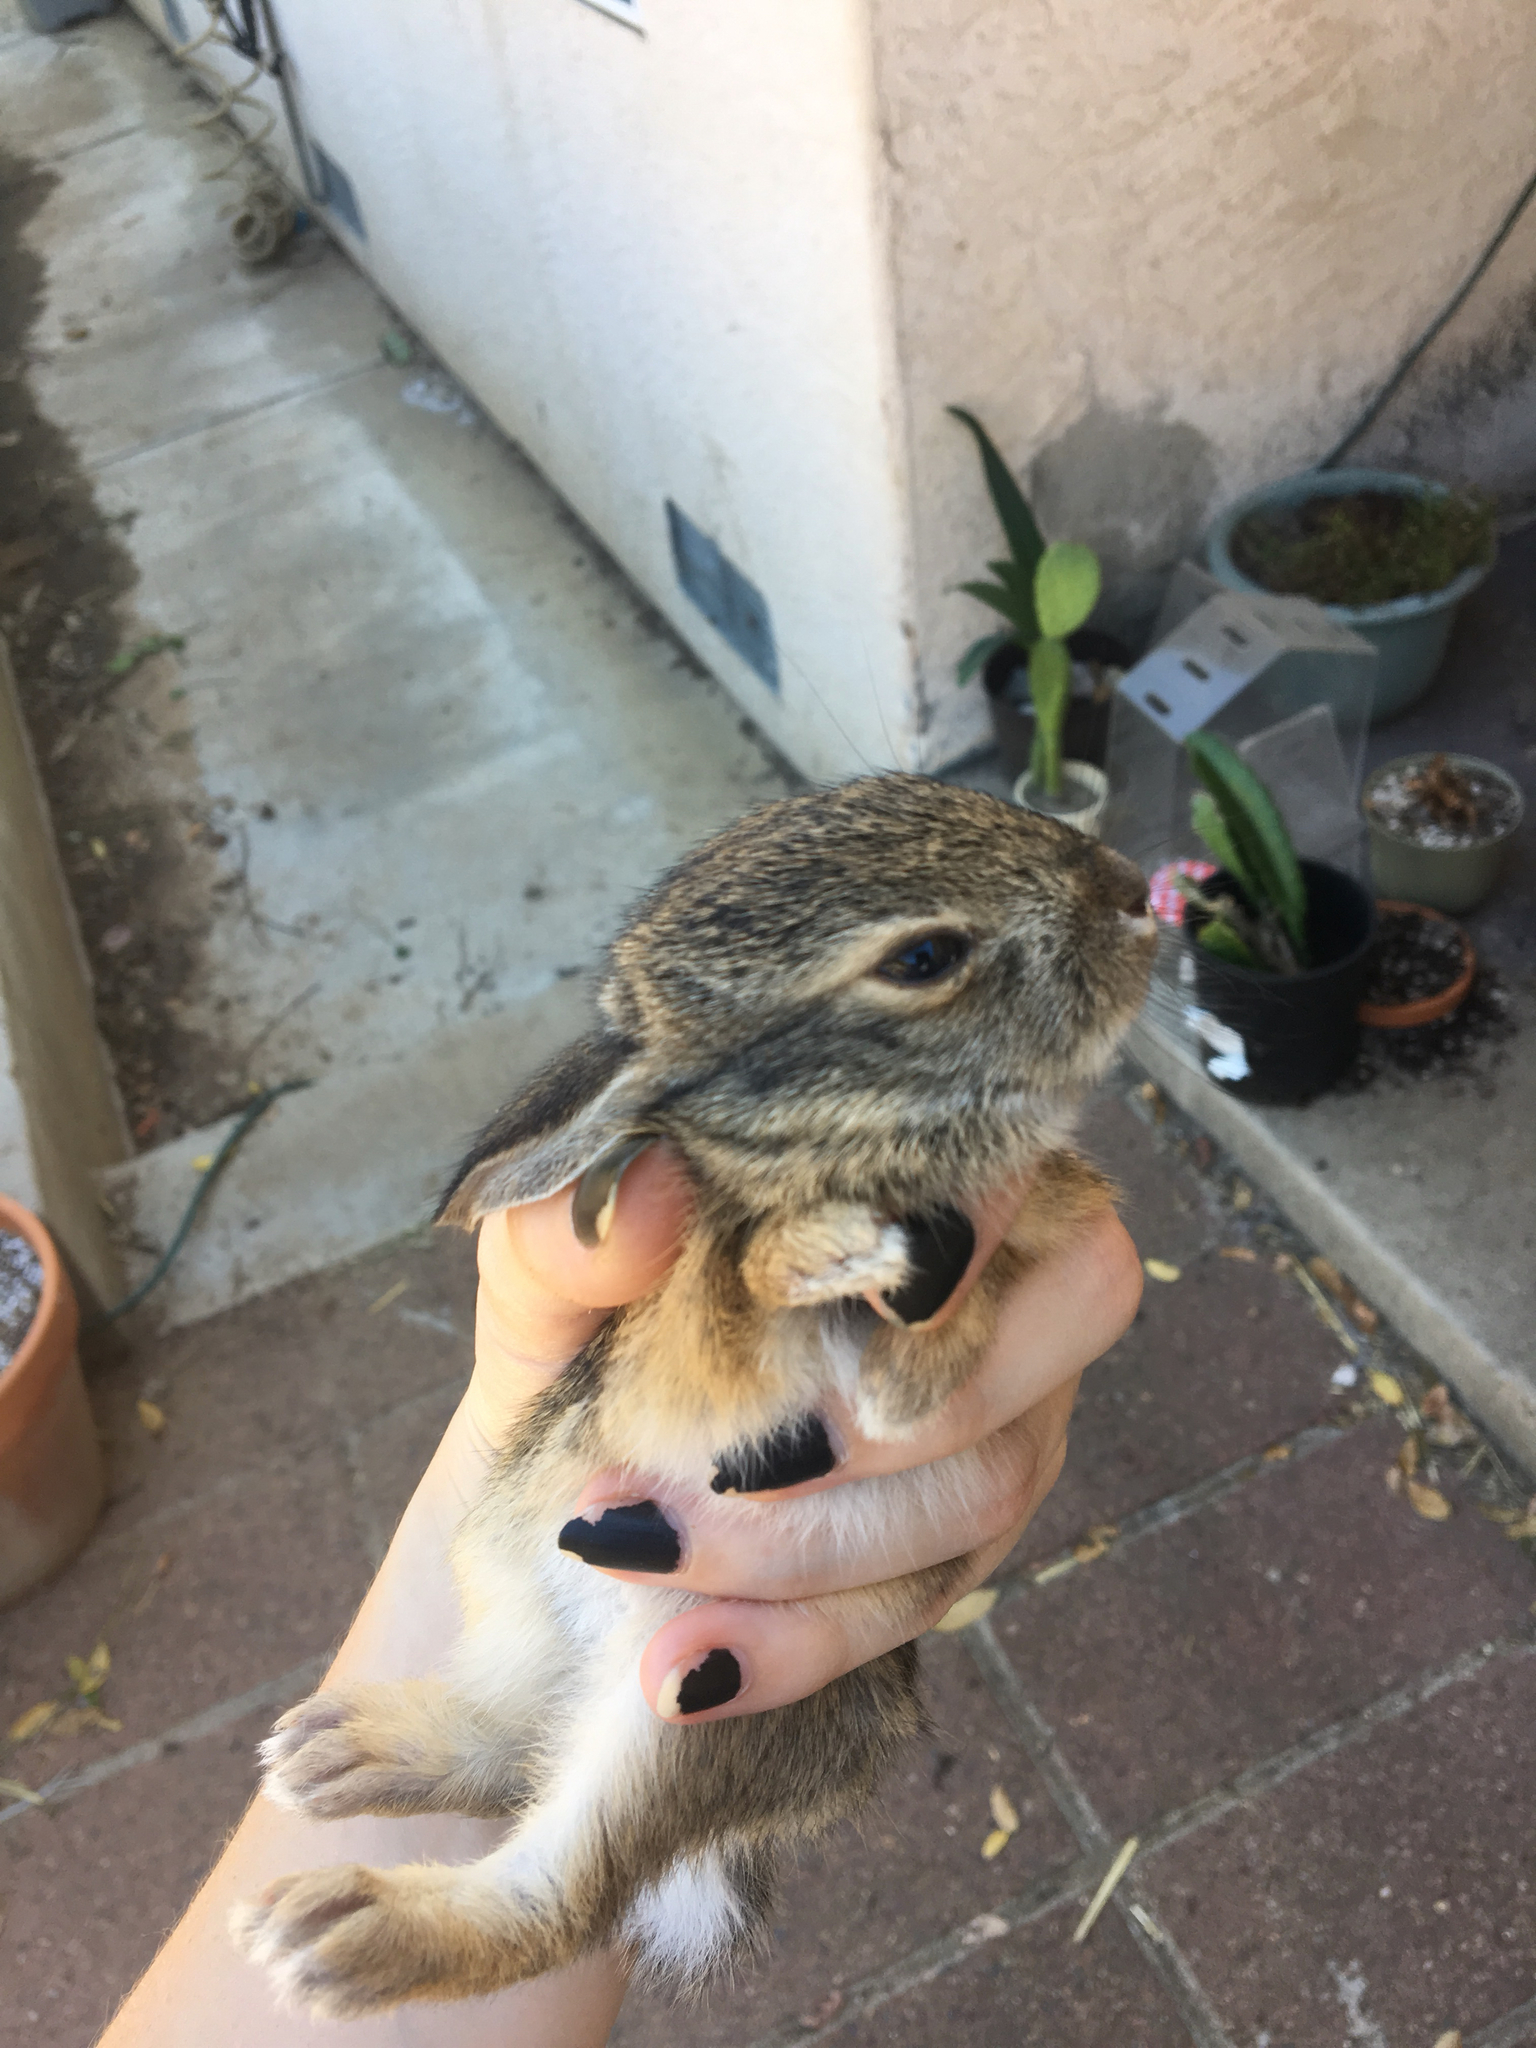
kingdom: Animalia
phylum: Chordata
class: Mammalia
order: Lagomorpha
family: Leporidae
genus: Sylvilagus
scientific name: Sylvilagus audubonii
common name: Desert cottontail
